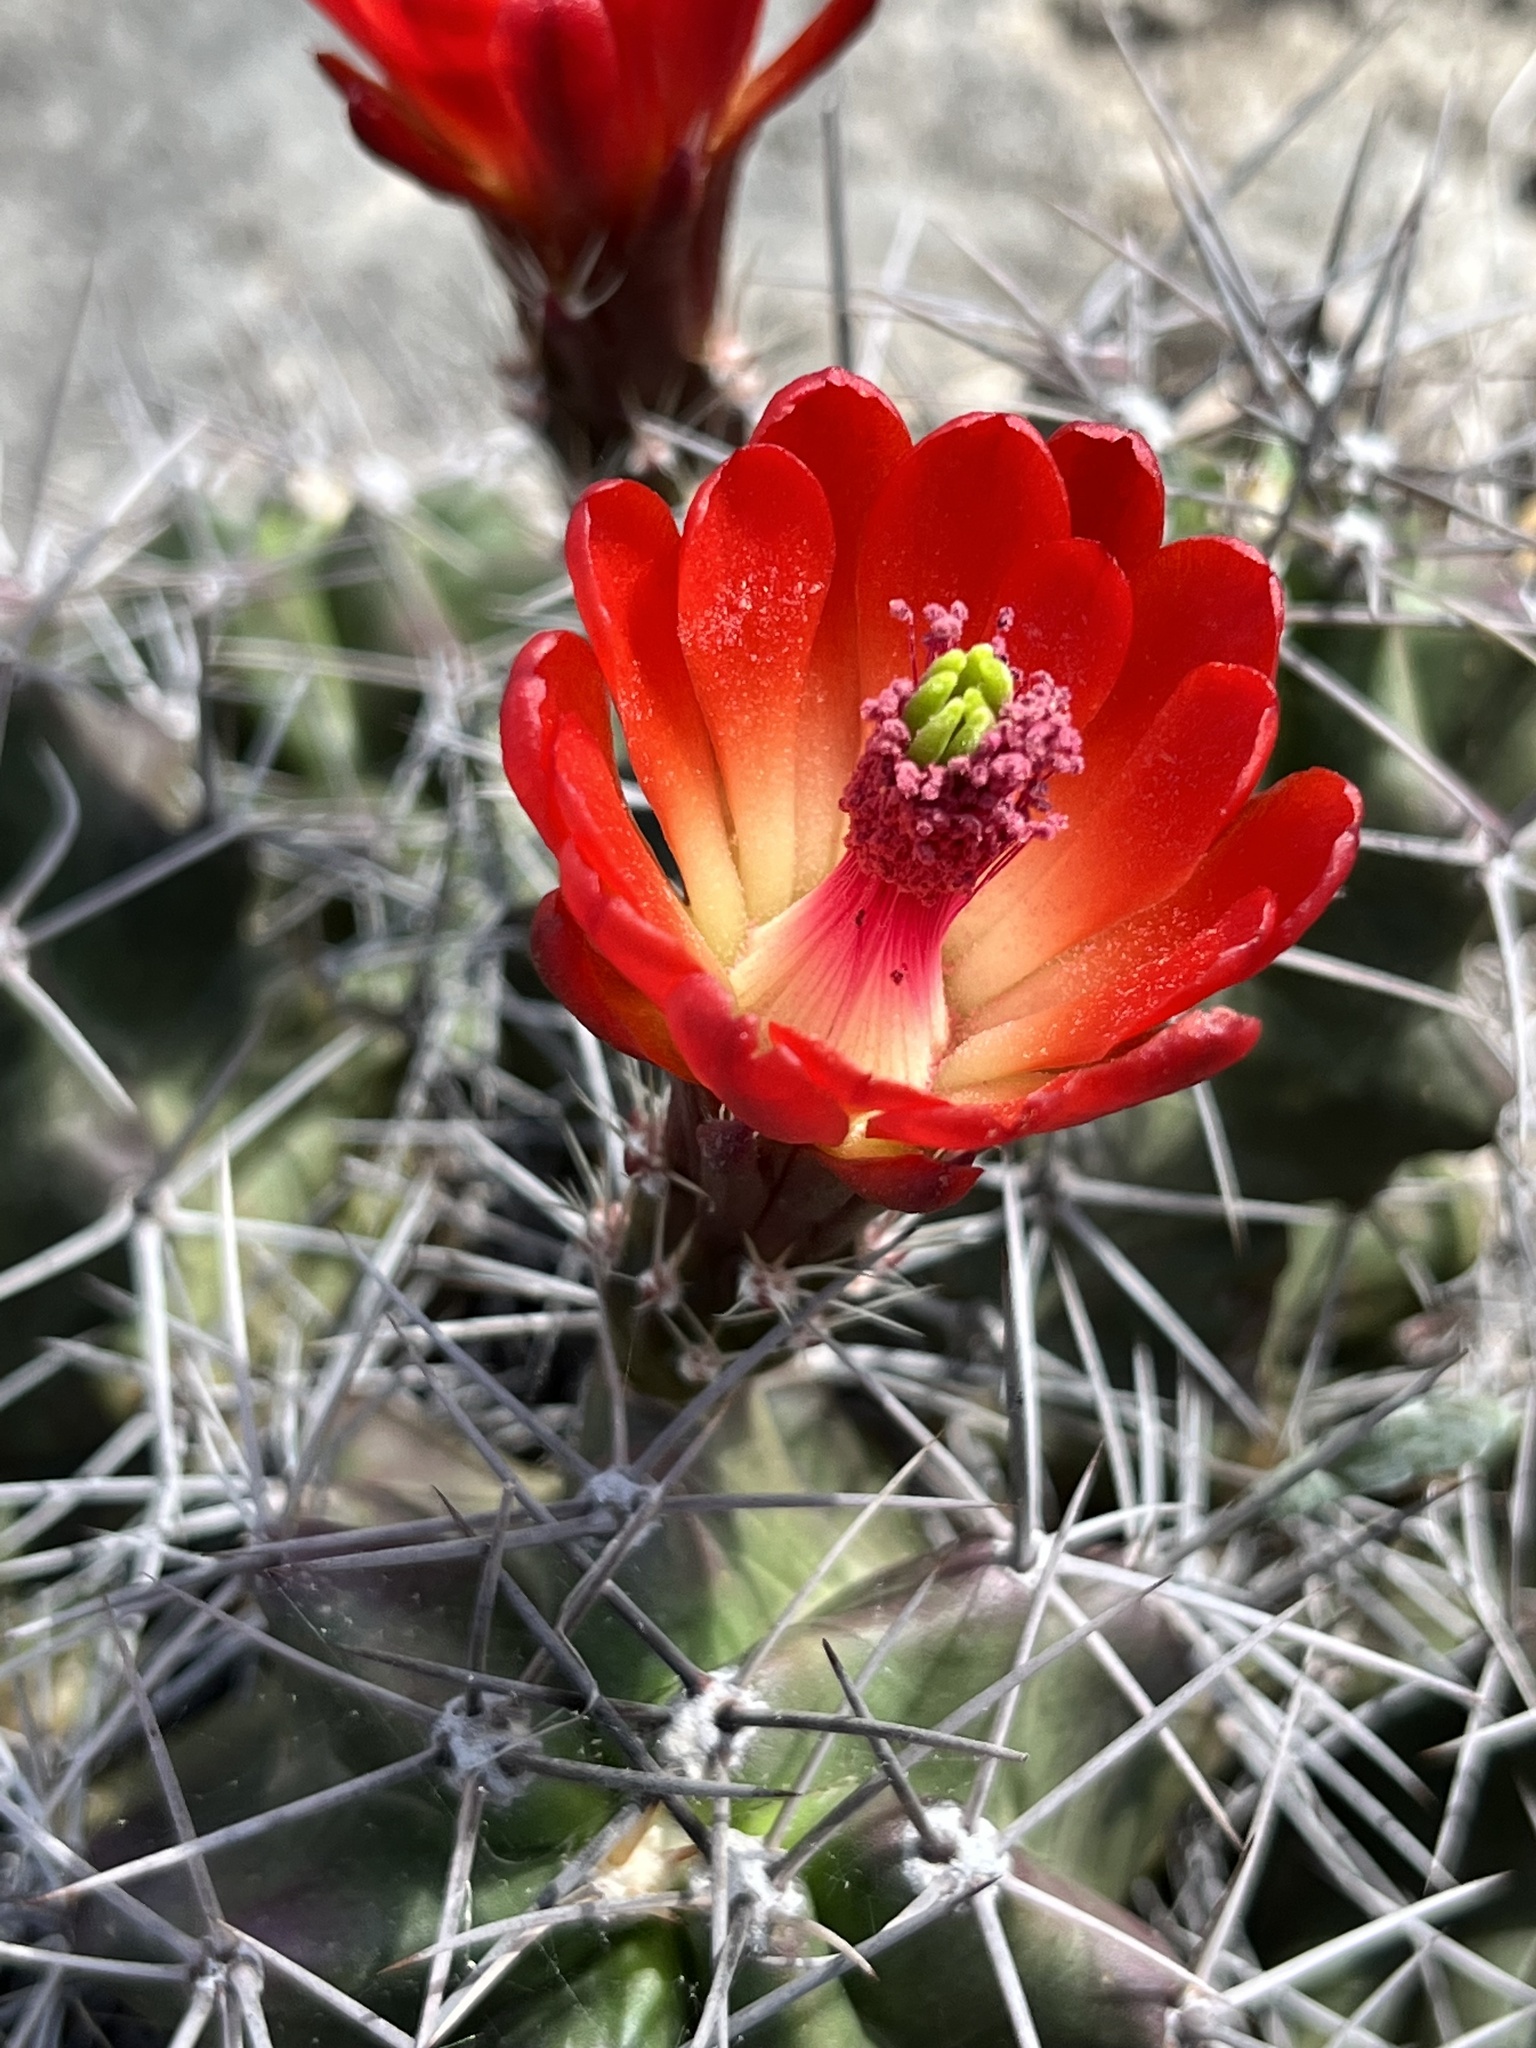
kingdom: Plantae
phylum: Tracheophyta
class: Magnoliopsida
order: Caryophyllales
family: Cactaceae
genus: Echinocereus
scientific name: Echinocereus coccineus
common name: Scarlet hedgehog cactus
